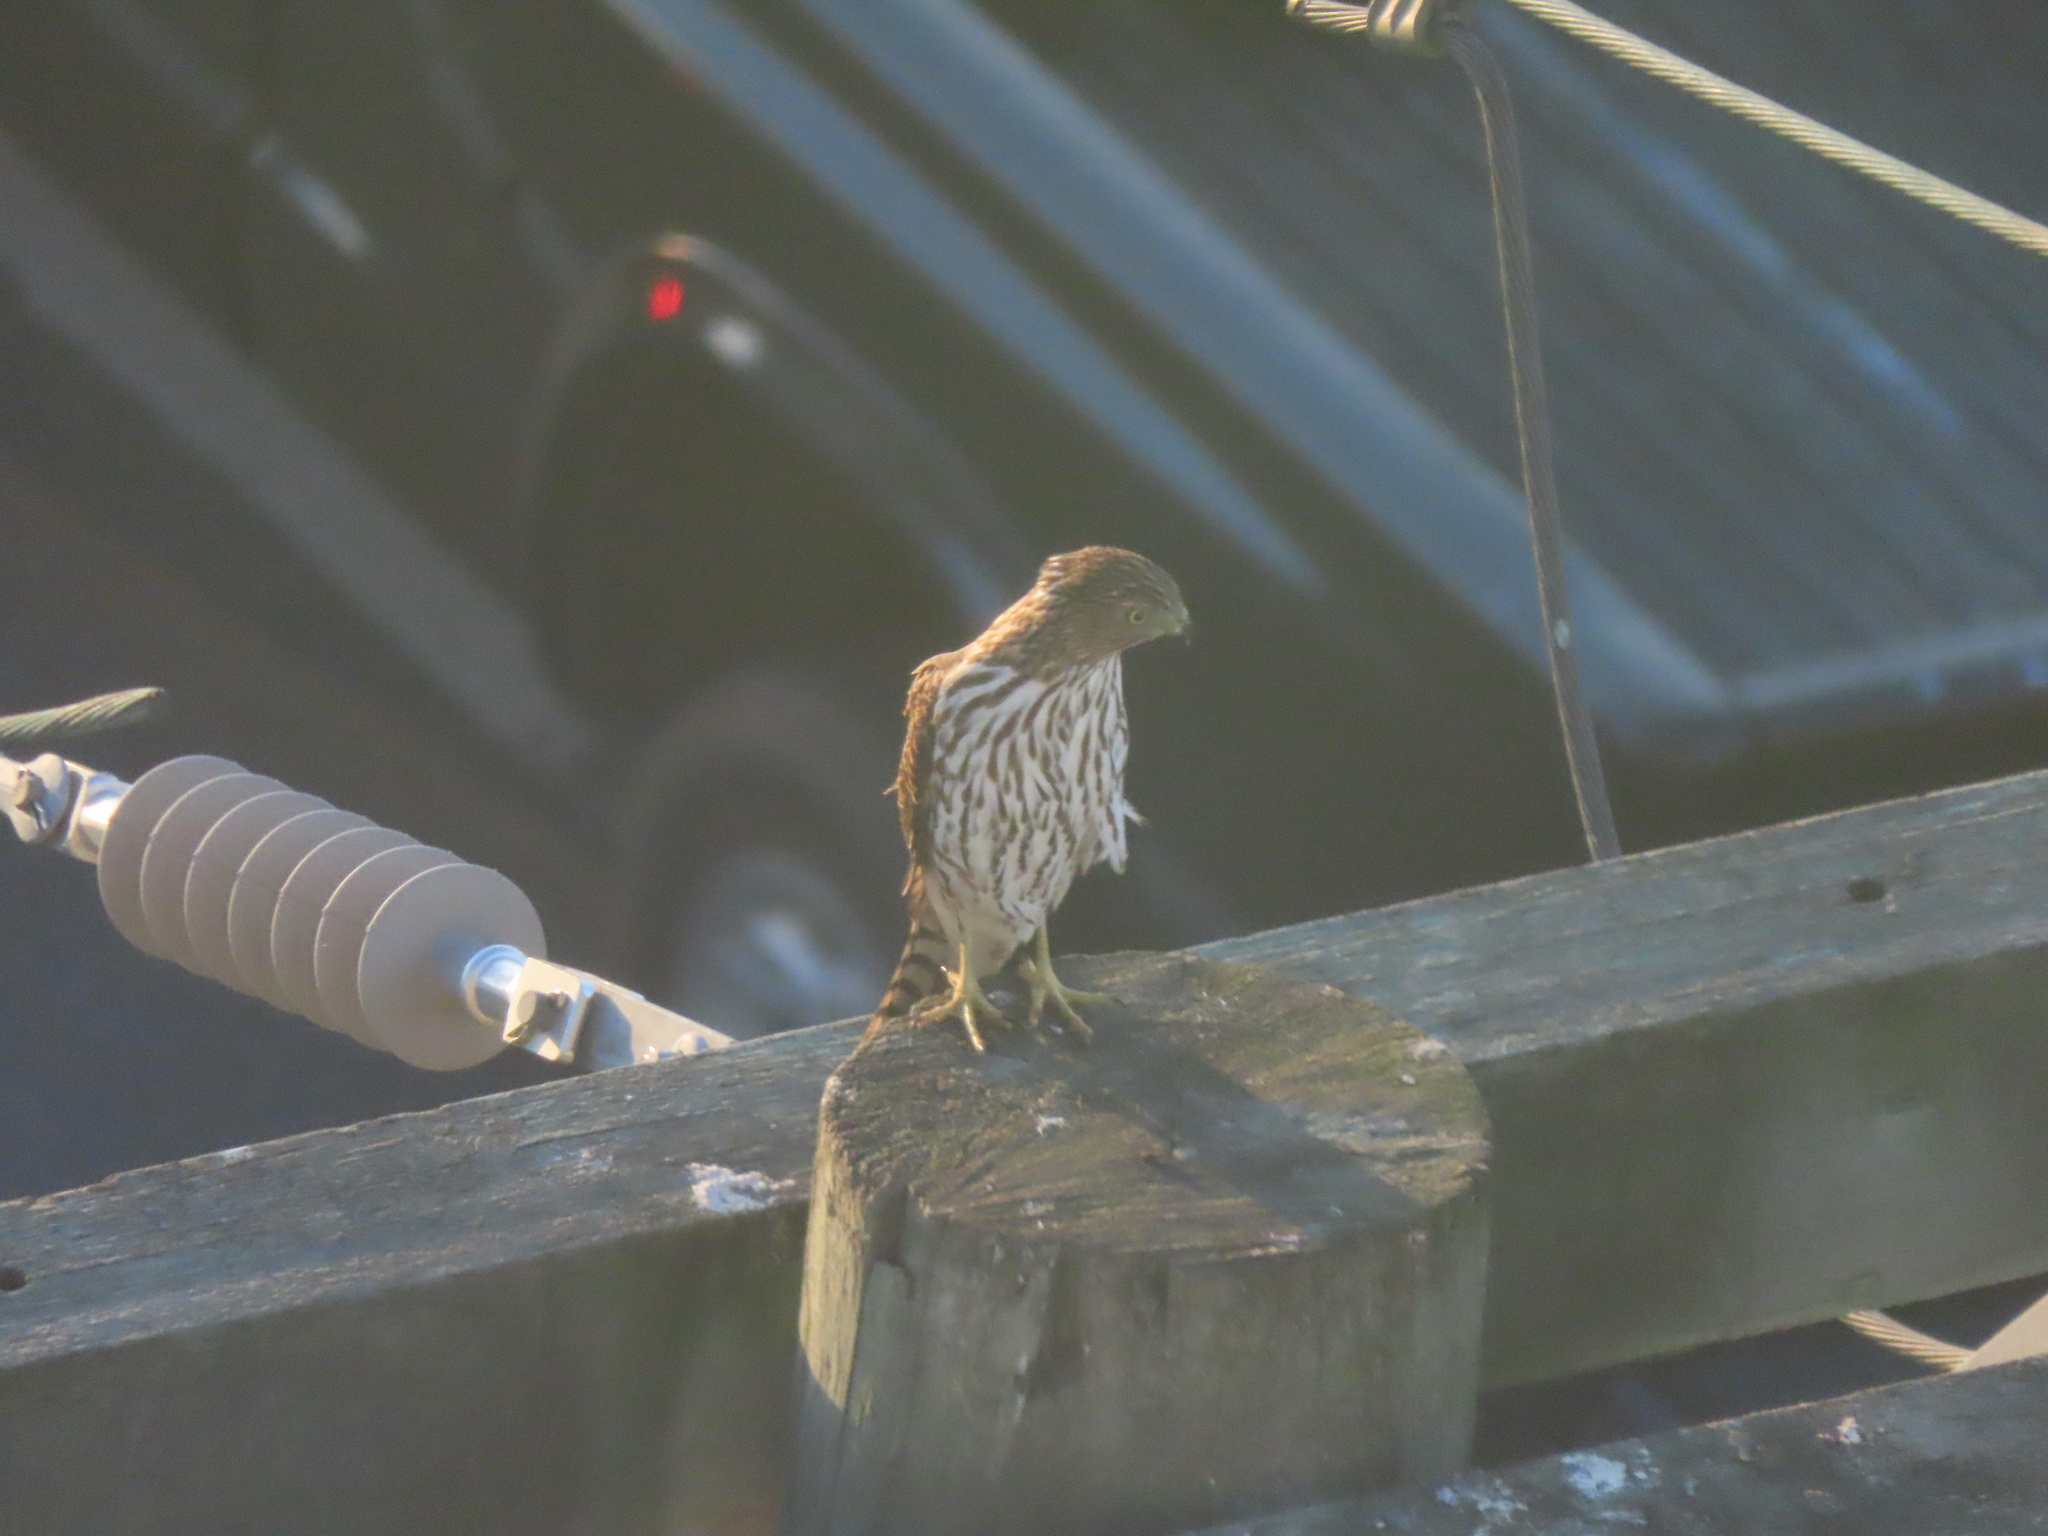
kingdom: Animalia
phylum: Chordata
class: Aves
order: Accipitriformes
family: Accipitridae
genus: Accipiter
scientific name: Accipiter cooperii
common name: Cooper's hawk
